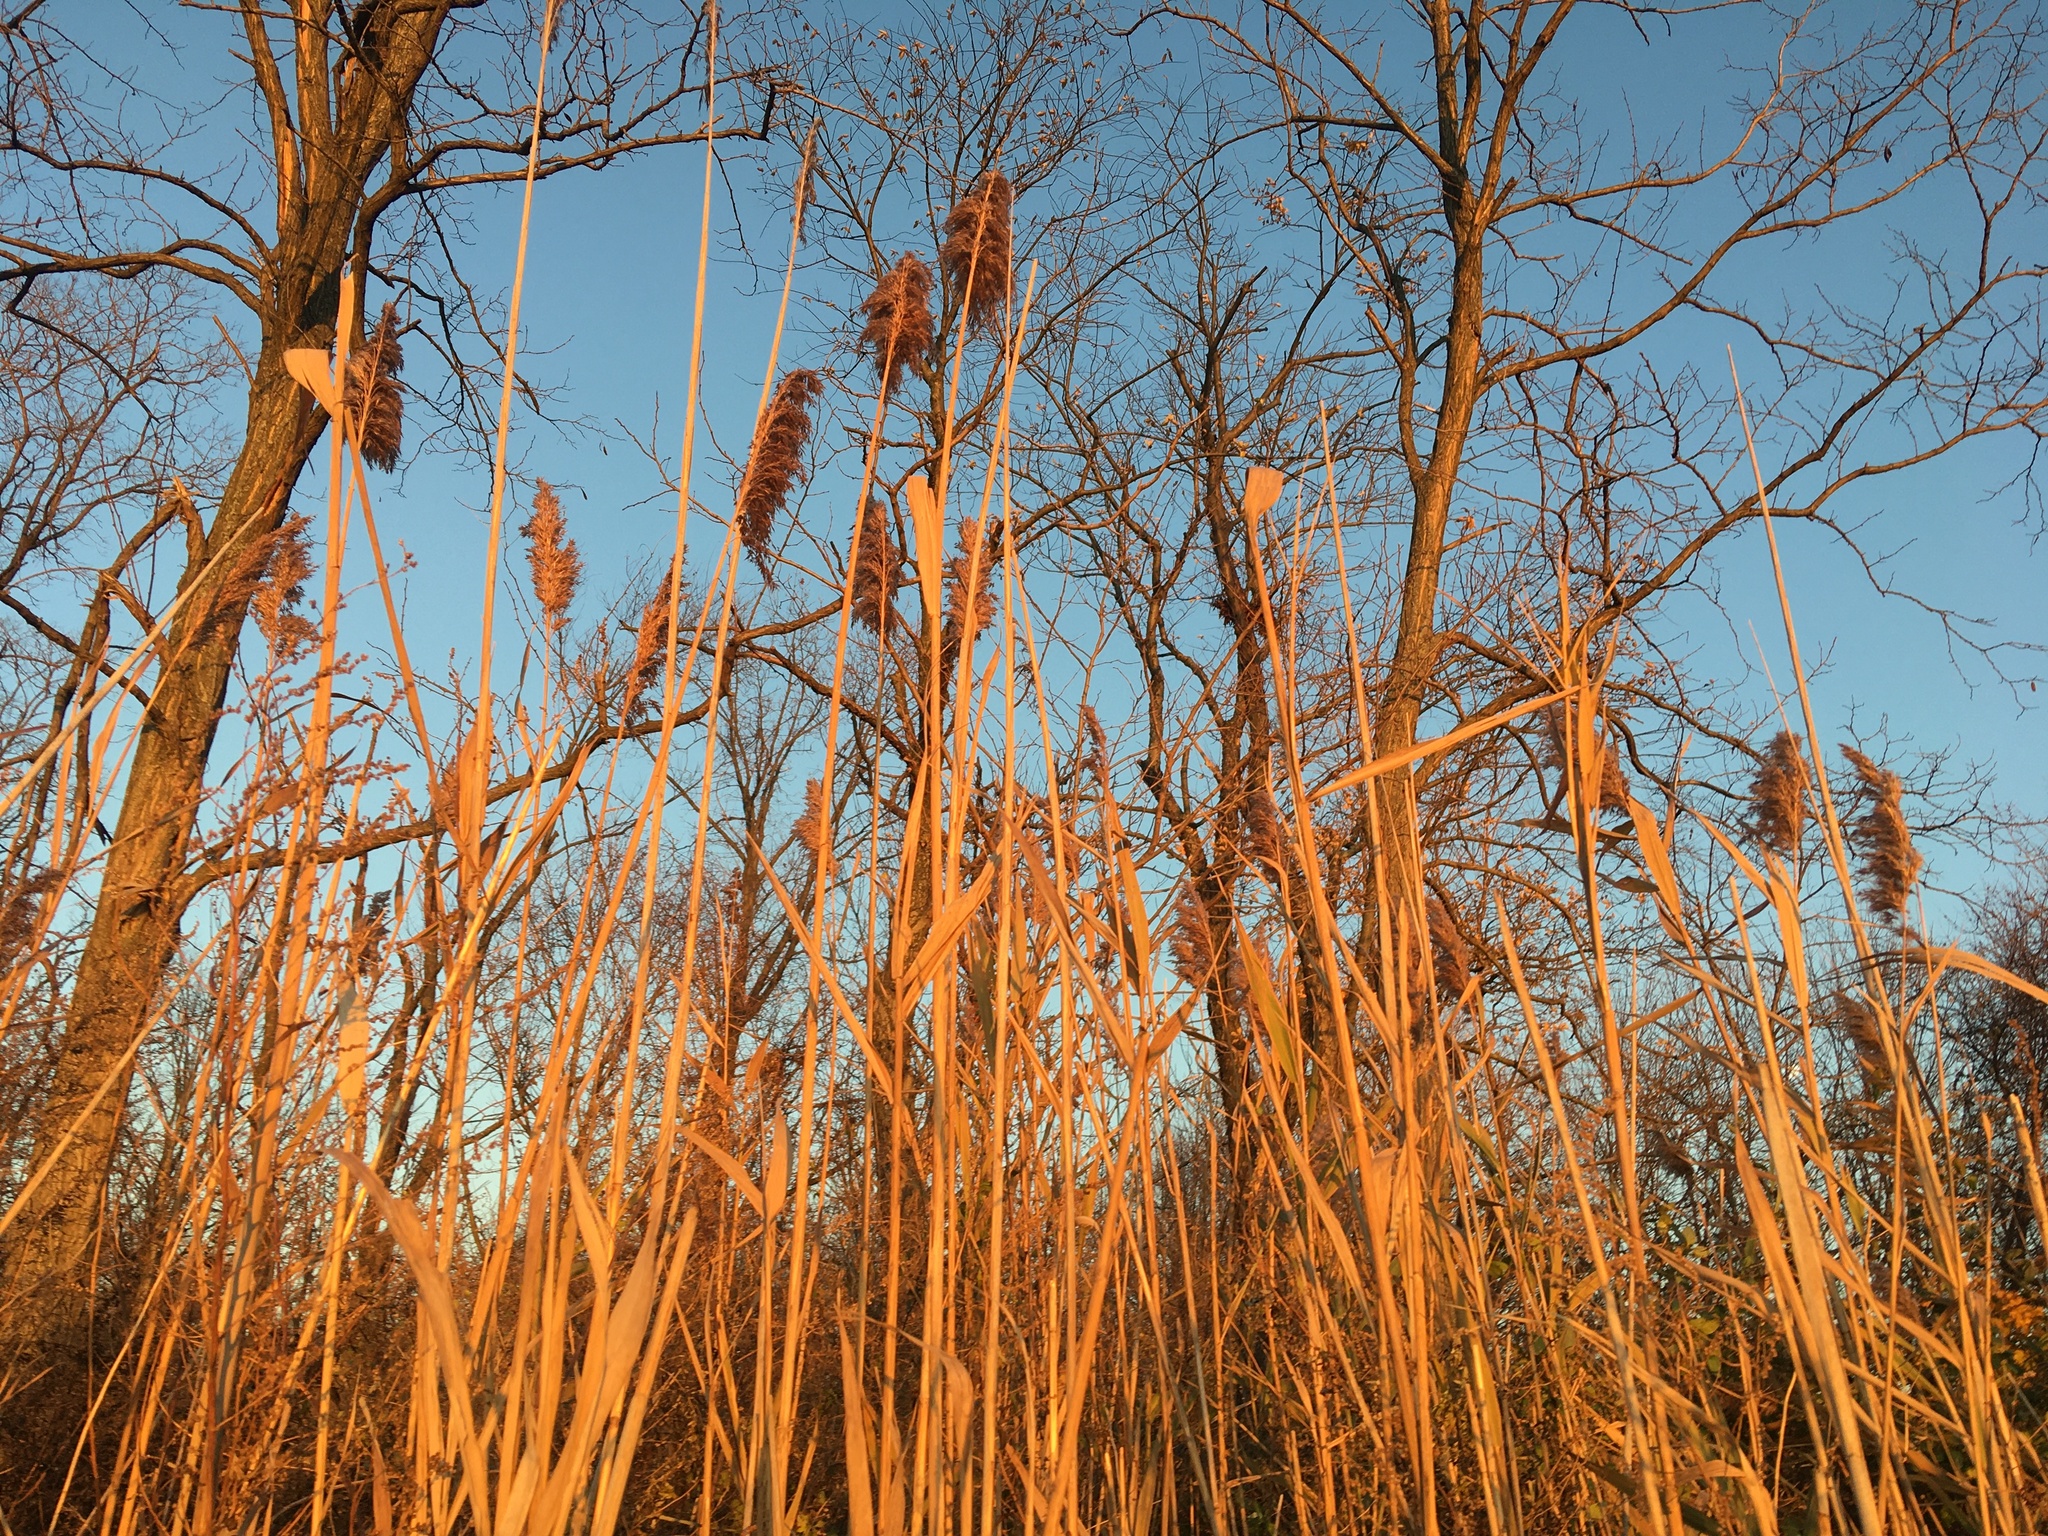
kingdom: Plantae
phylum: Tracheophyta
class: Liliopsida
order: Poales
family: Poaceae
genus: Phragmites
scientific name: Phragmites australis
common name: Common reed
